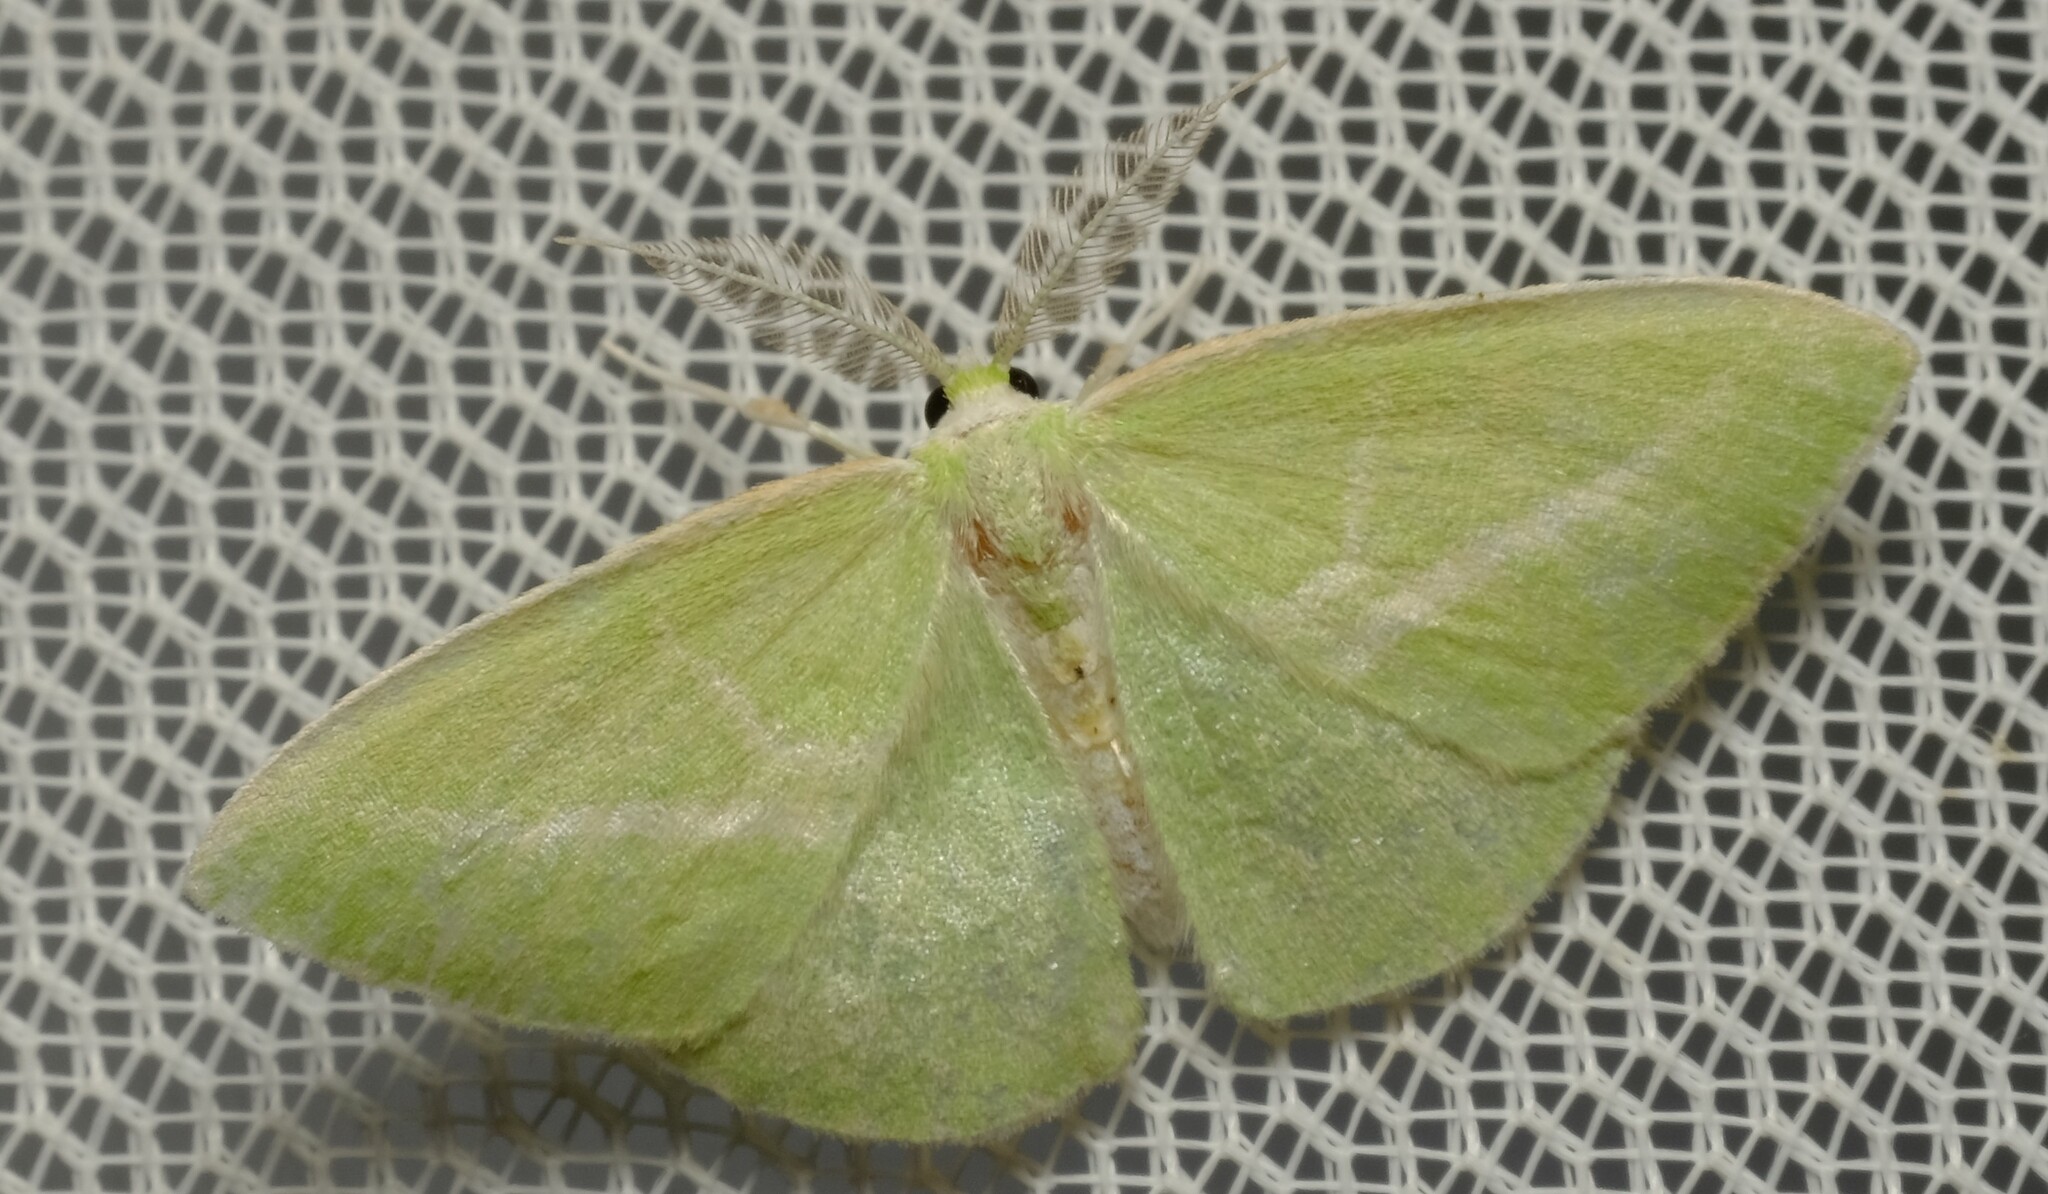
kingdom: Animalia
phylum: Arthropoda
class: Insecta
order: Lepidoptera
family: Geometridae
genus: Iulops
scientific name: Iulops argocrana
